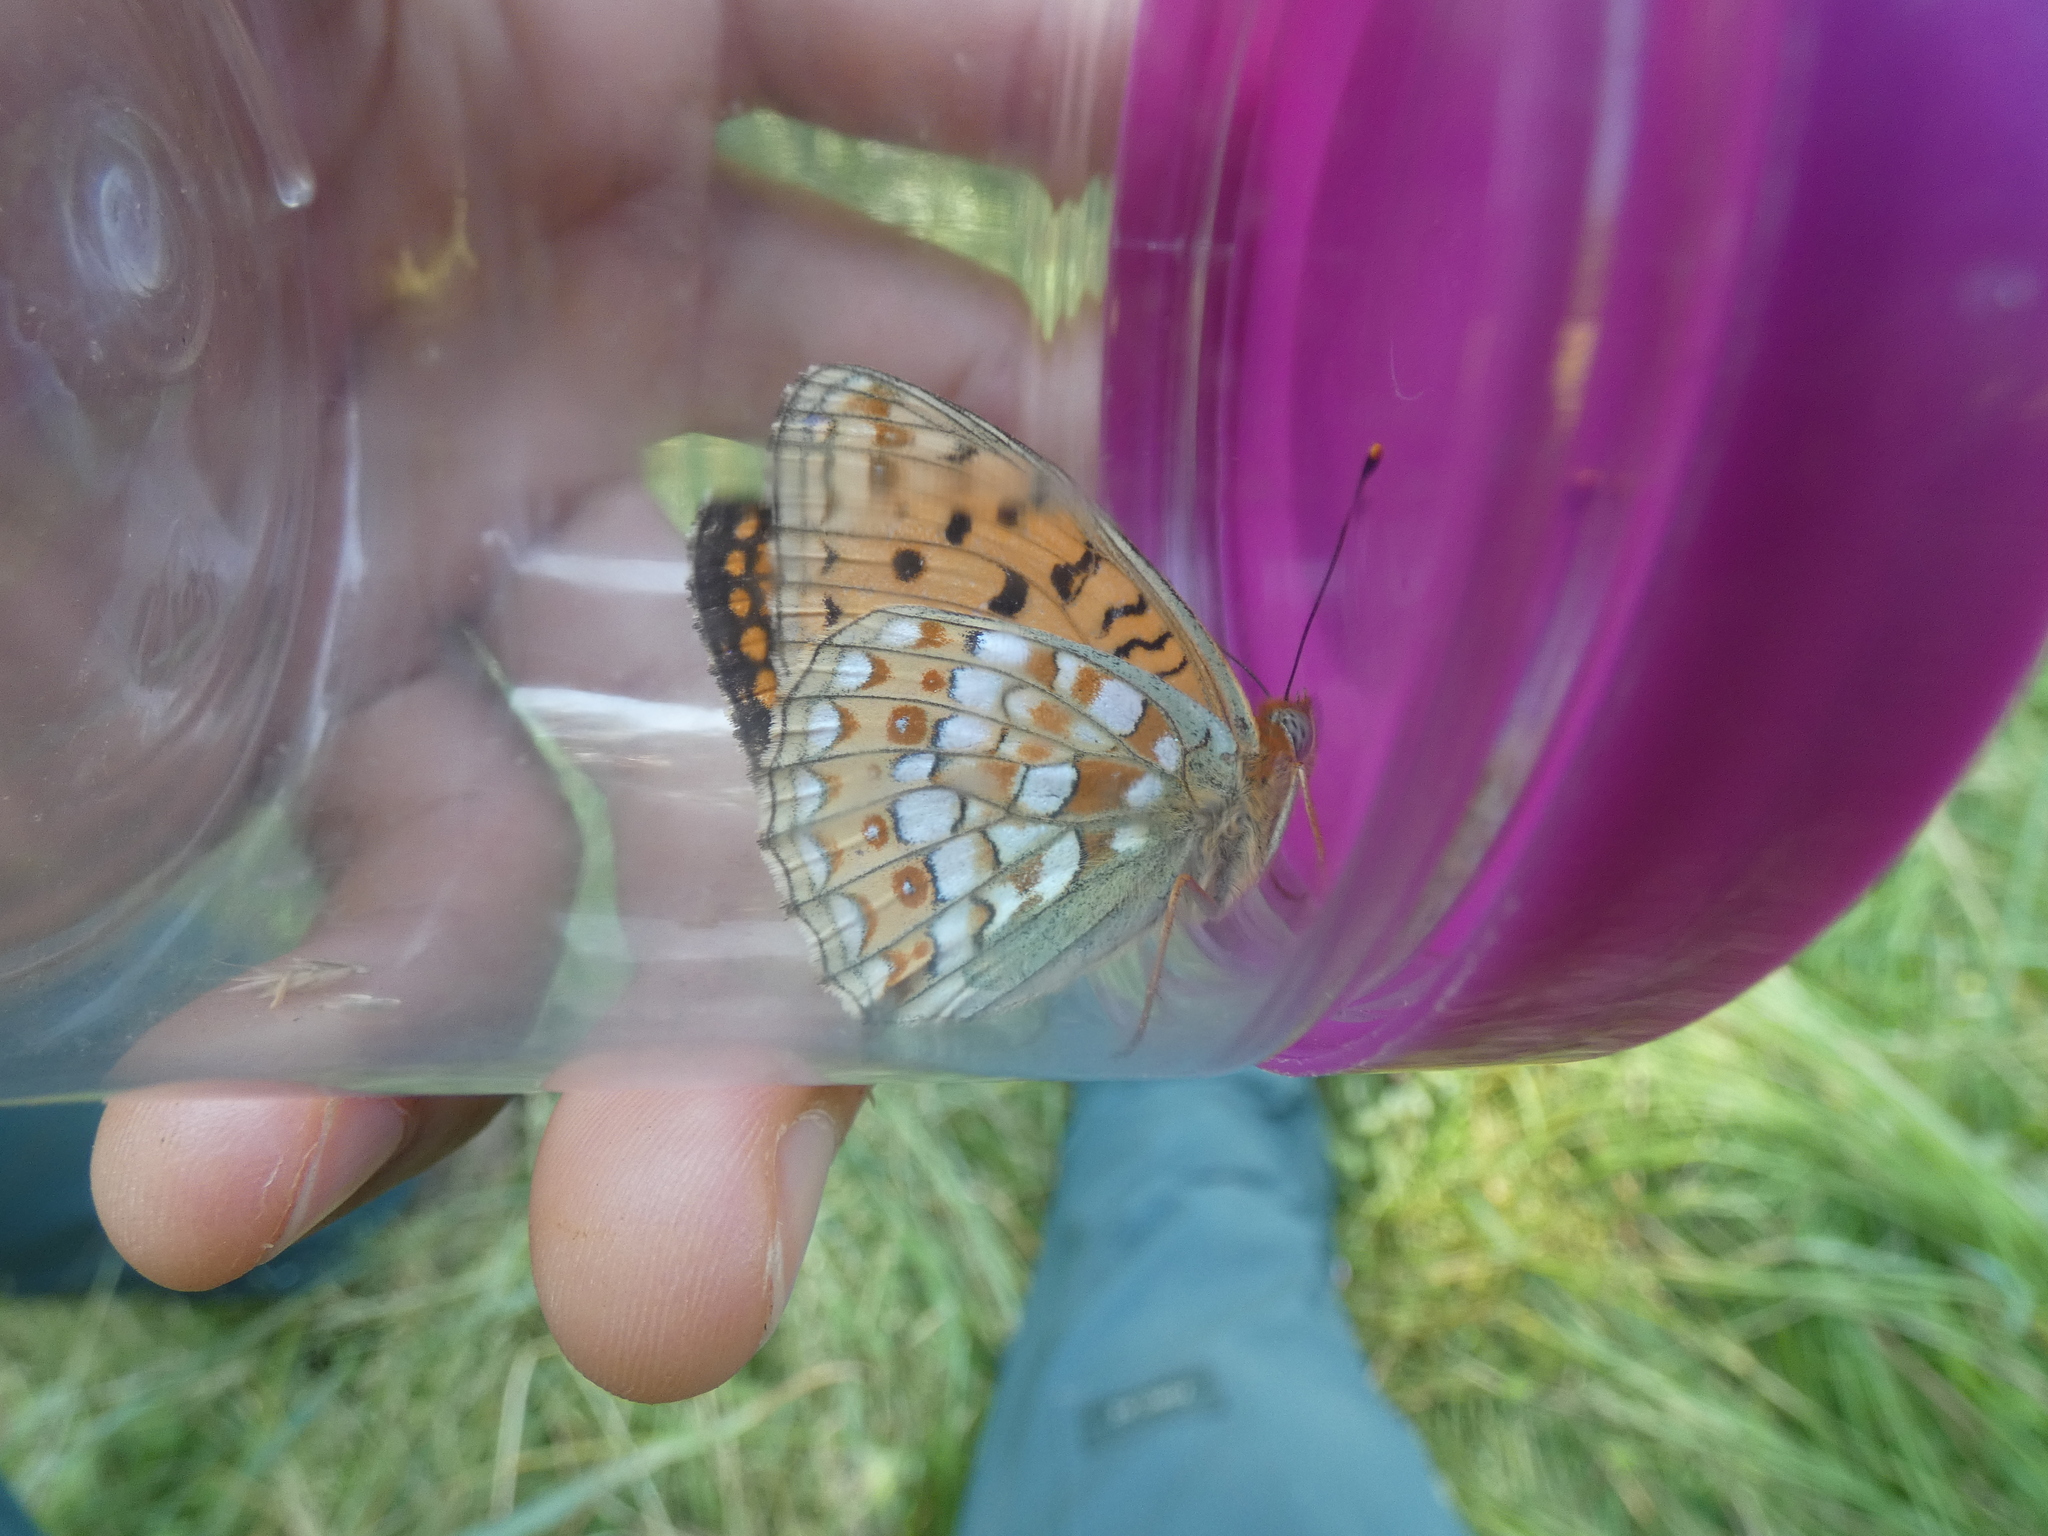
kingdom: Animalia
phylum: Arthropoda
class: Insecta
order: Lepidoptera
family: Nymphalidae
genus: Fabriciana
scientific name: Fabriciana niobe
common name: Niobe fritillary
